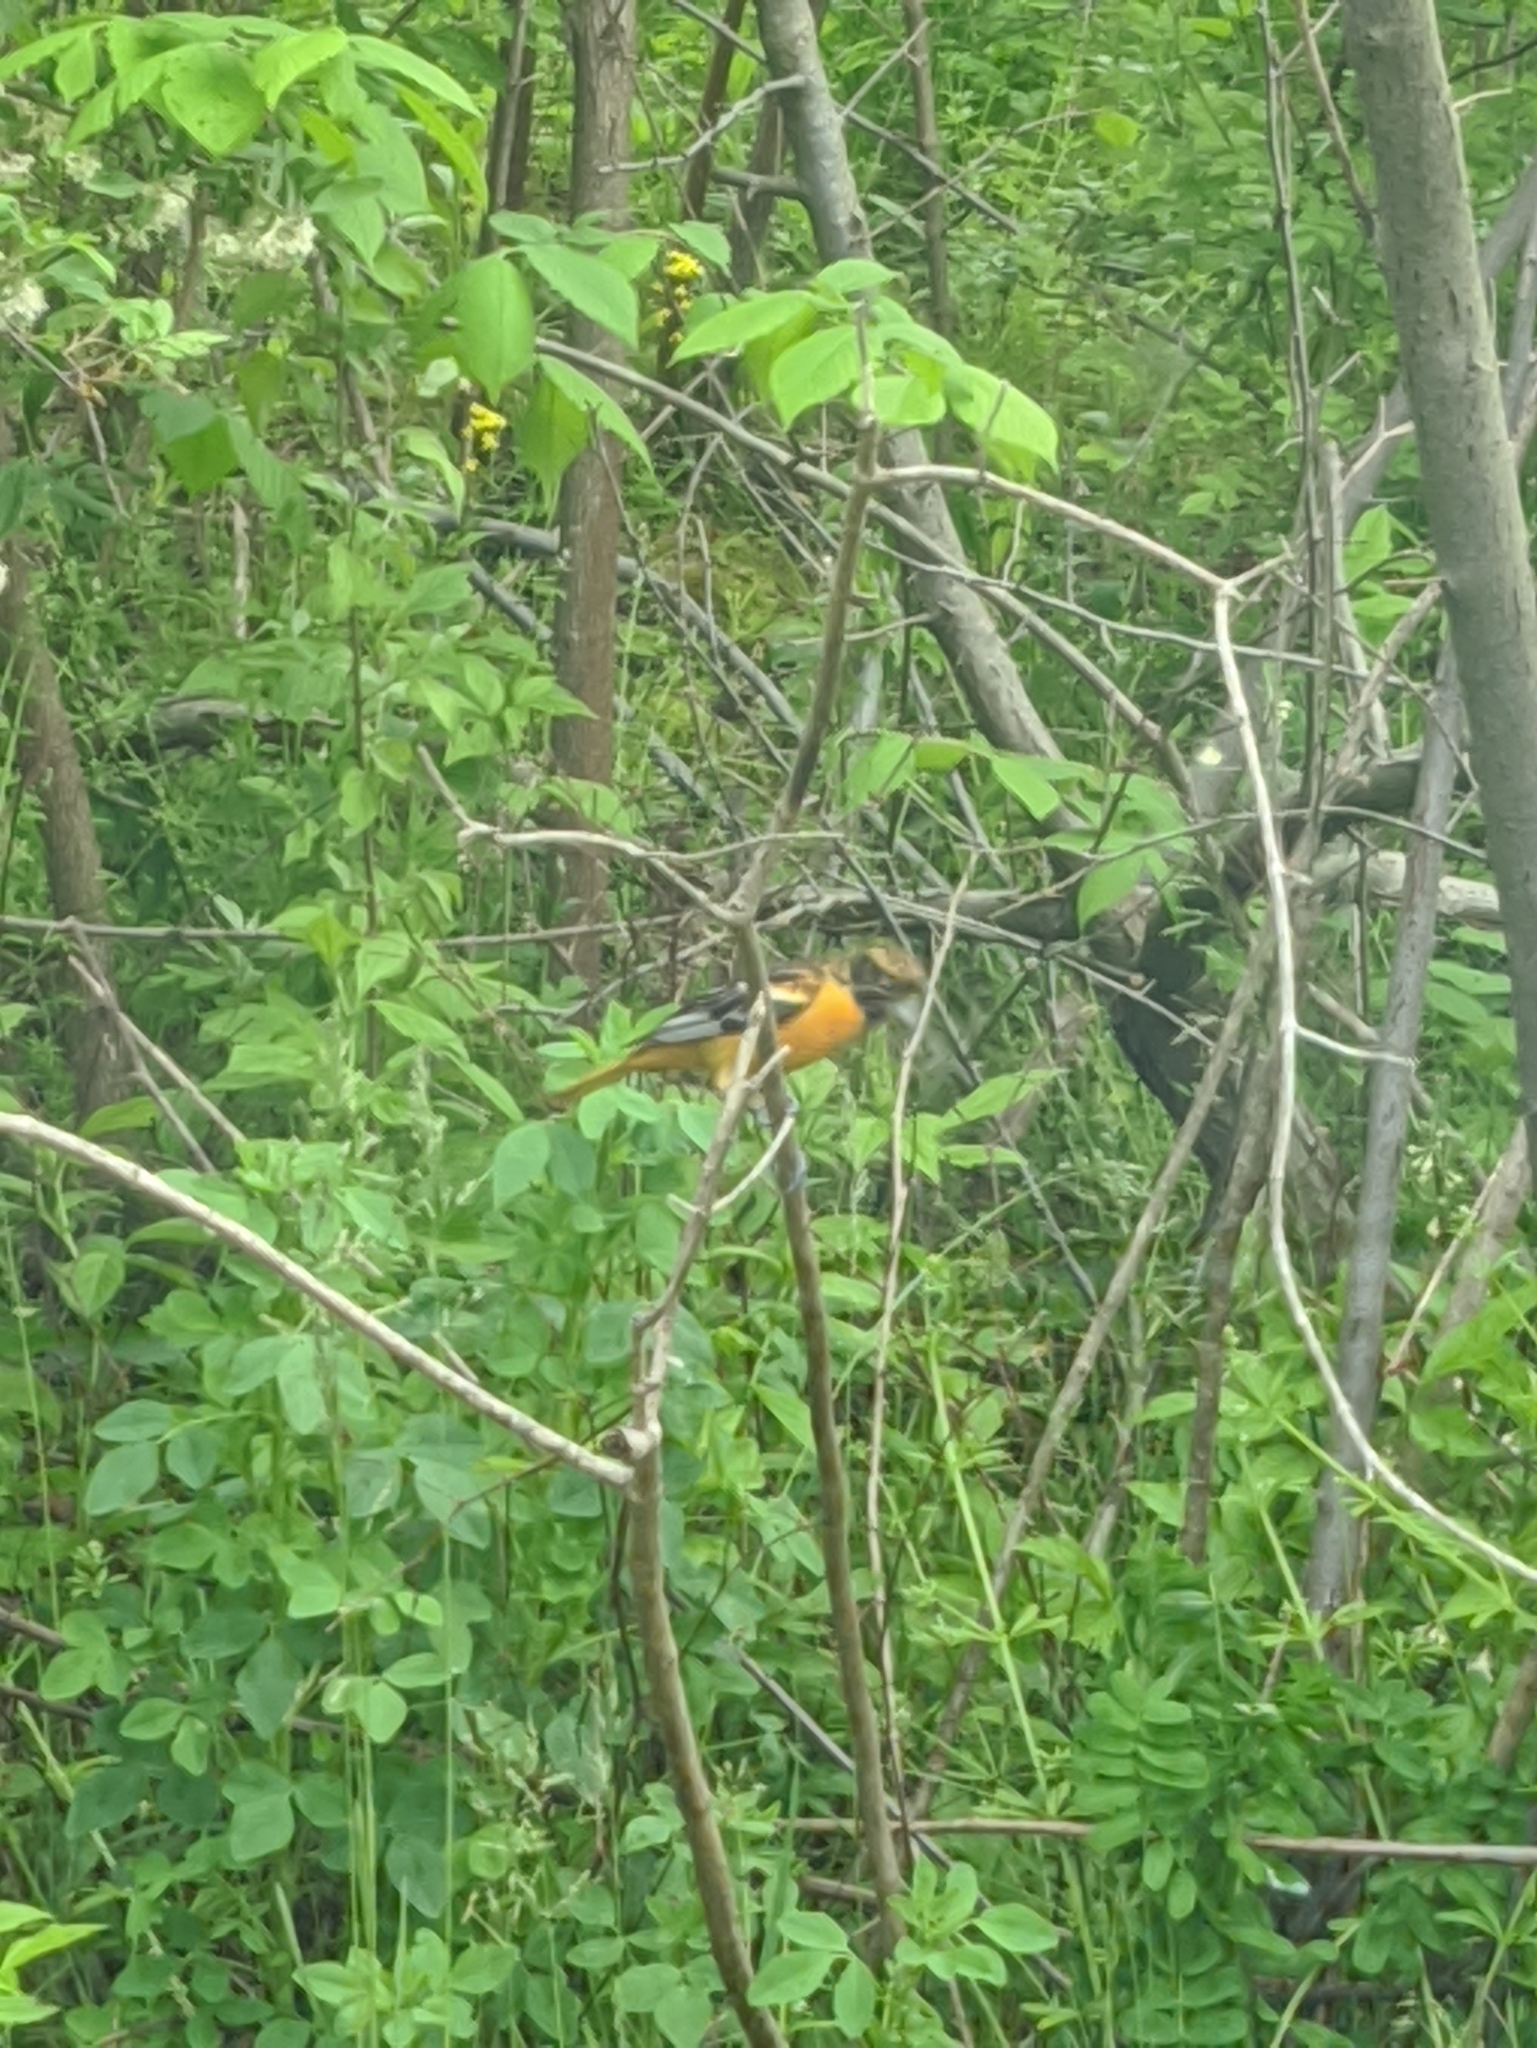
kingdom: Animalia
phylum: Chordata
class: Aves
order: Passeriformes
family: Icteridae
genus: Icterus
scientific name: Icterus galbula
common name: Baltimore oriole
